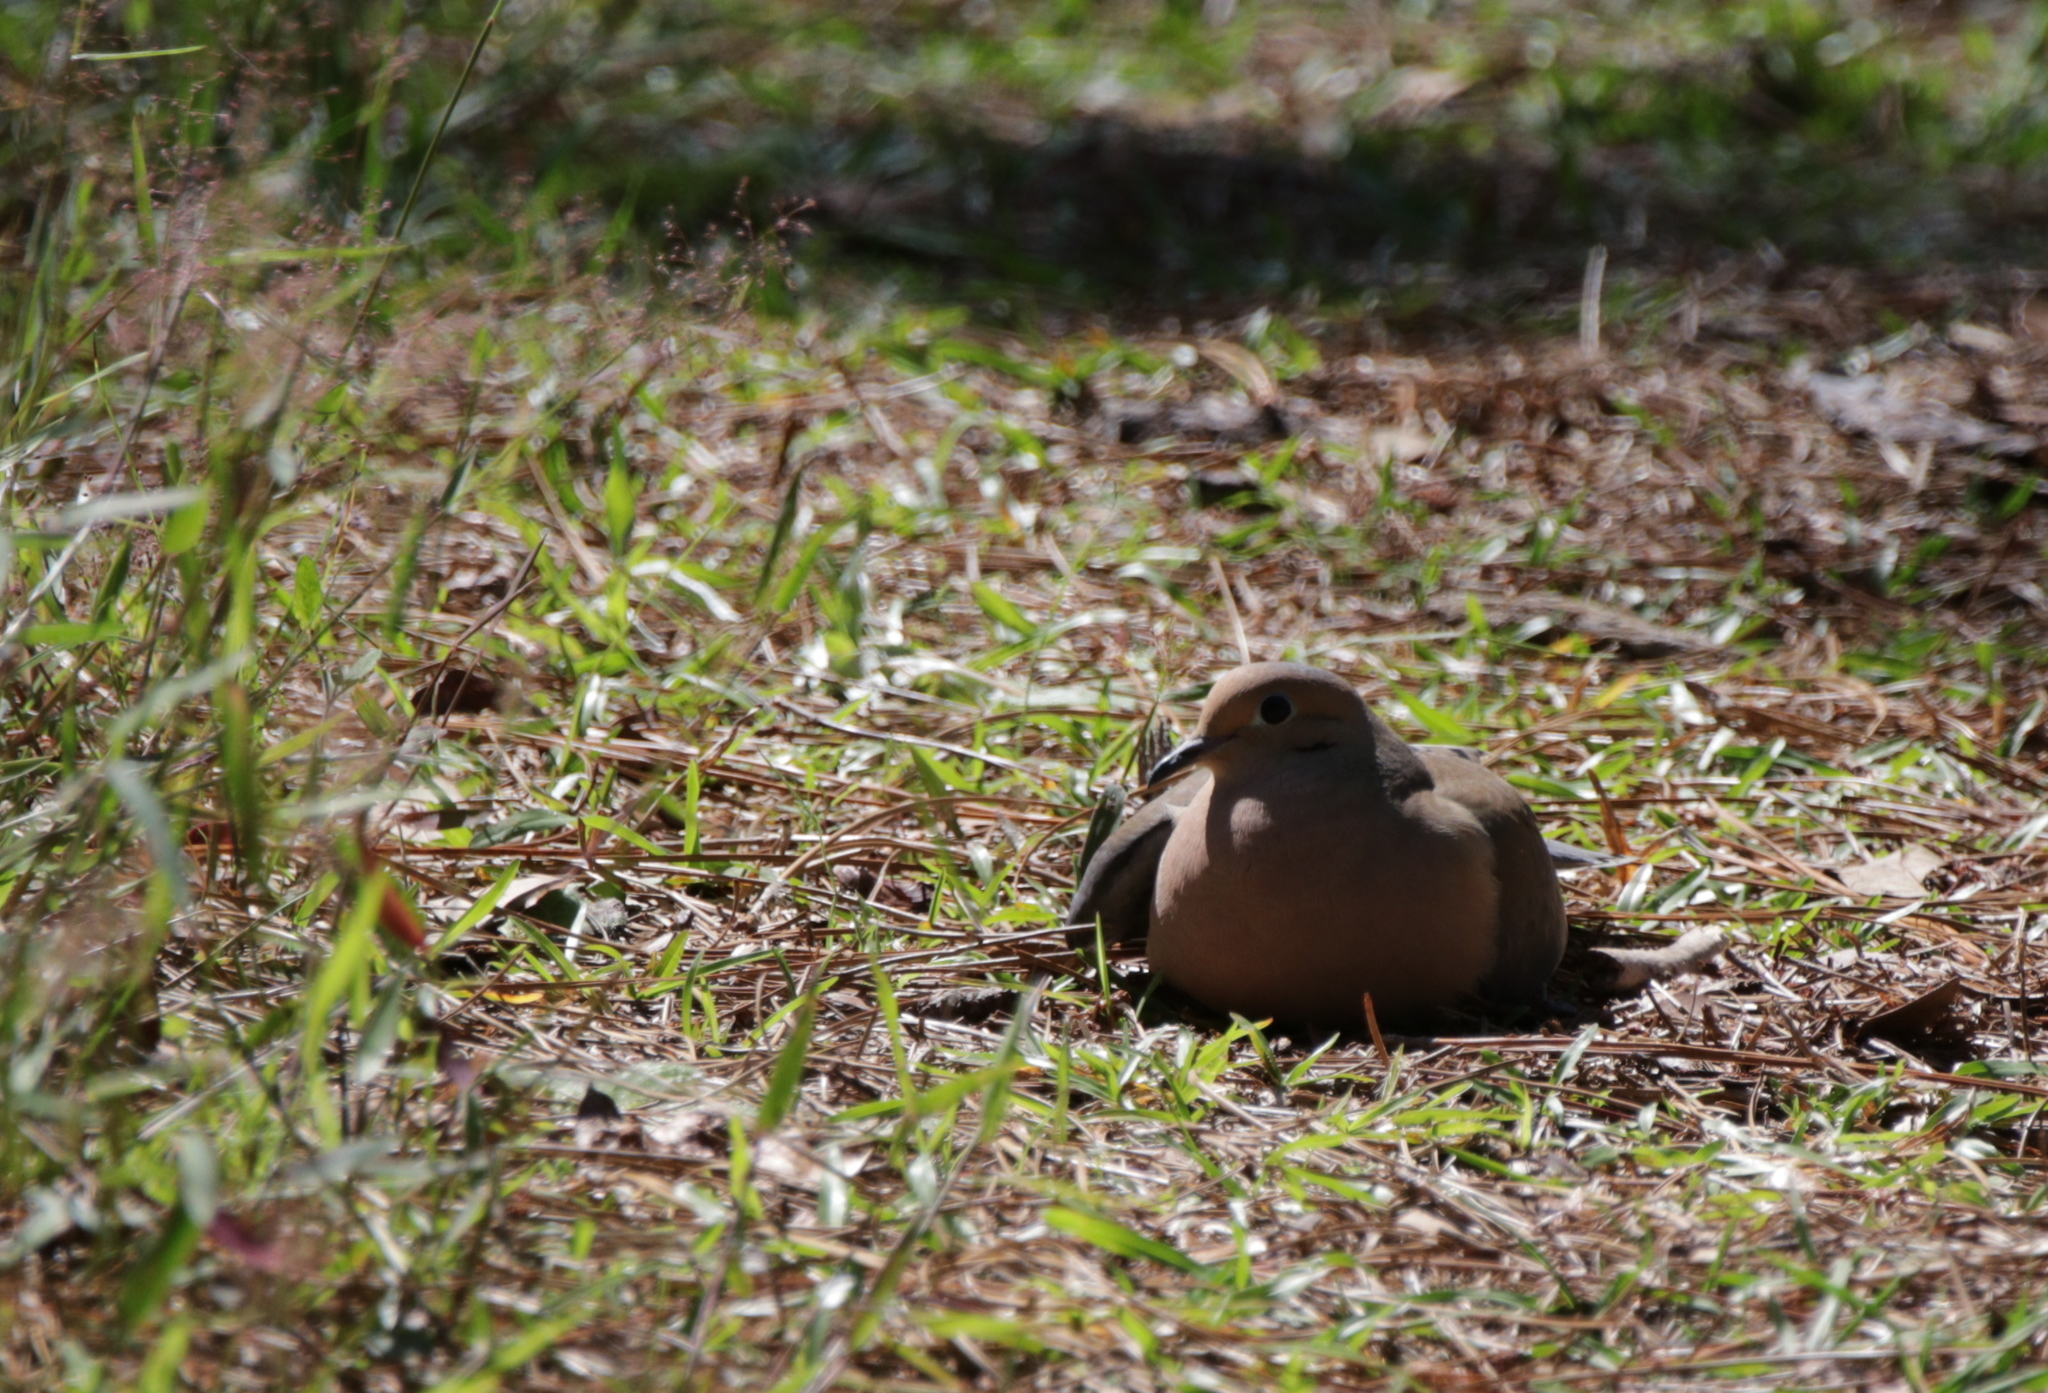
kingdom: Animalia
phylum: Chordata
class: Aves
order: Columbiformes
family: Columbidae
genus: Zenaida
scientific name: Zenaida macroura
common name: Mourning dove
